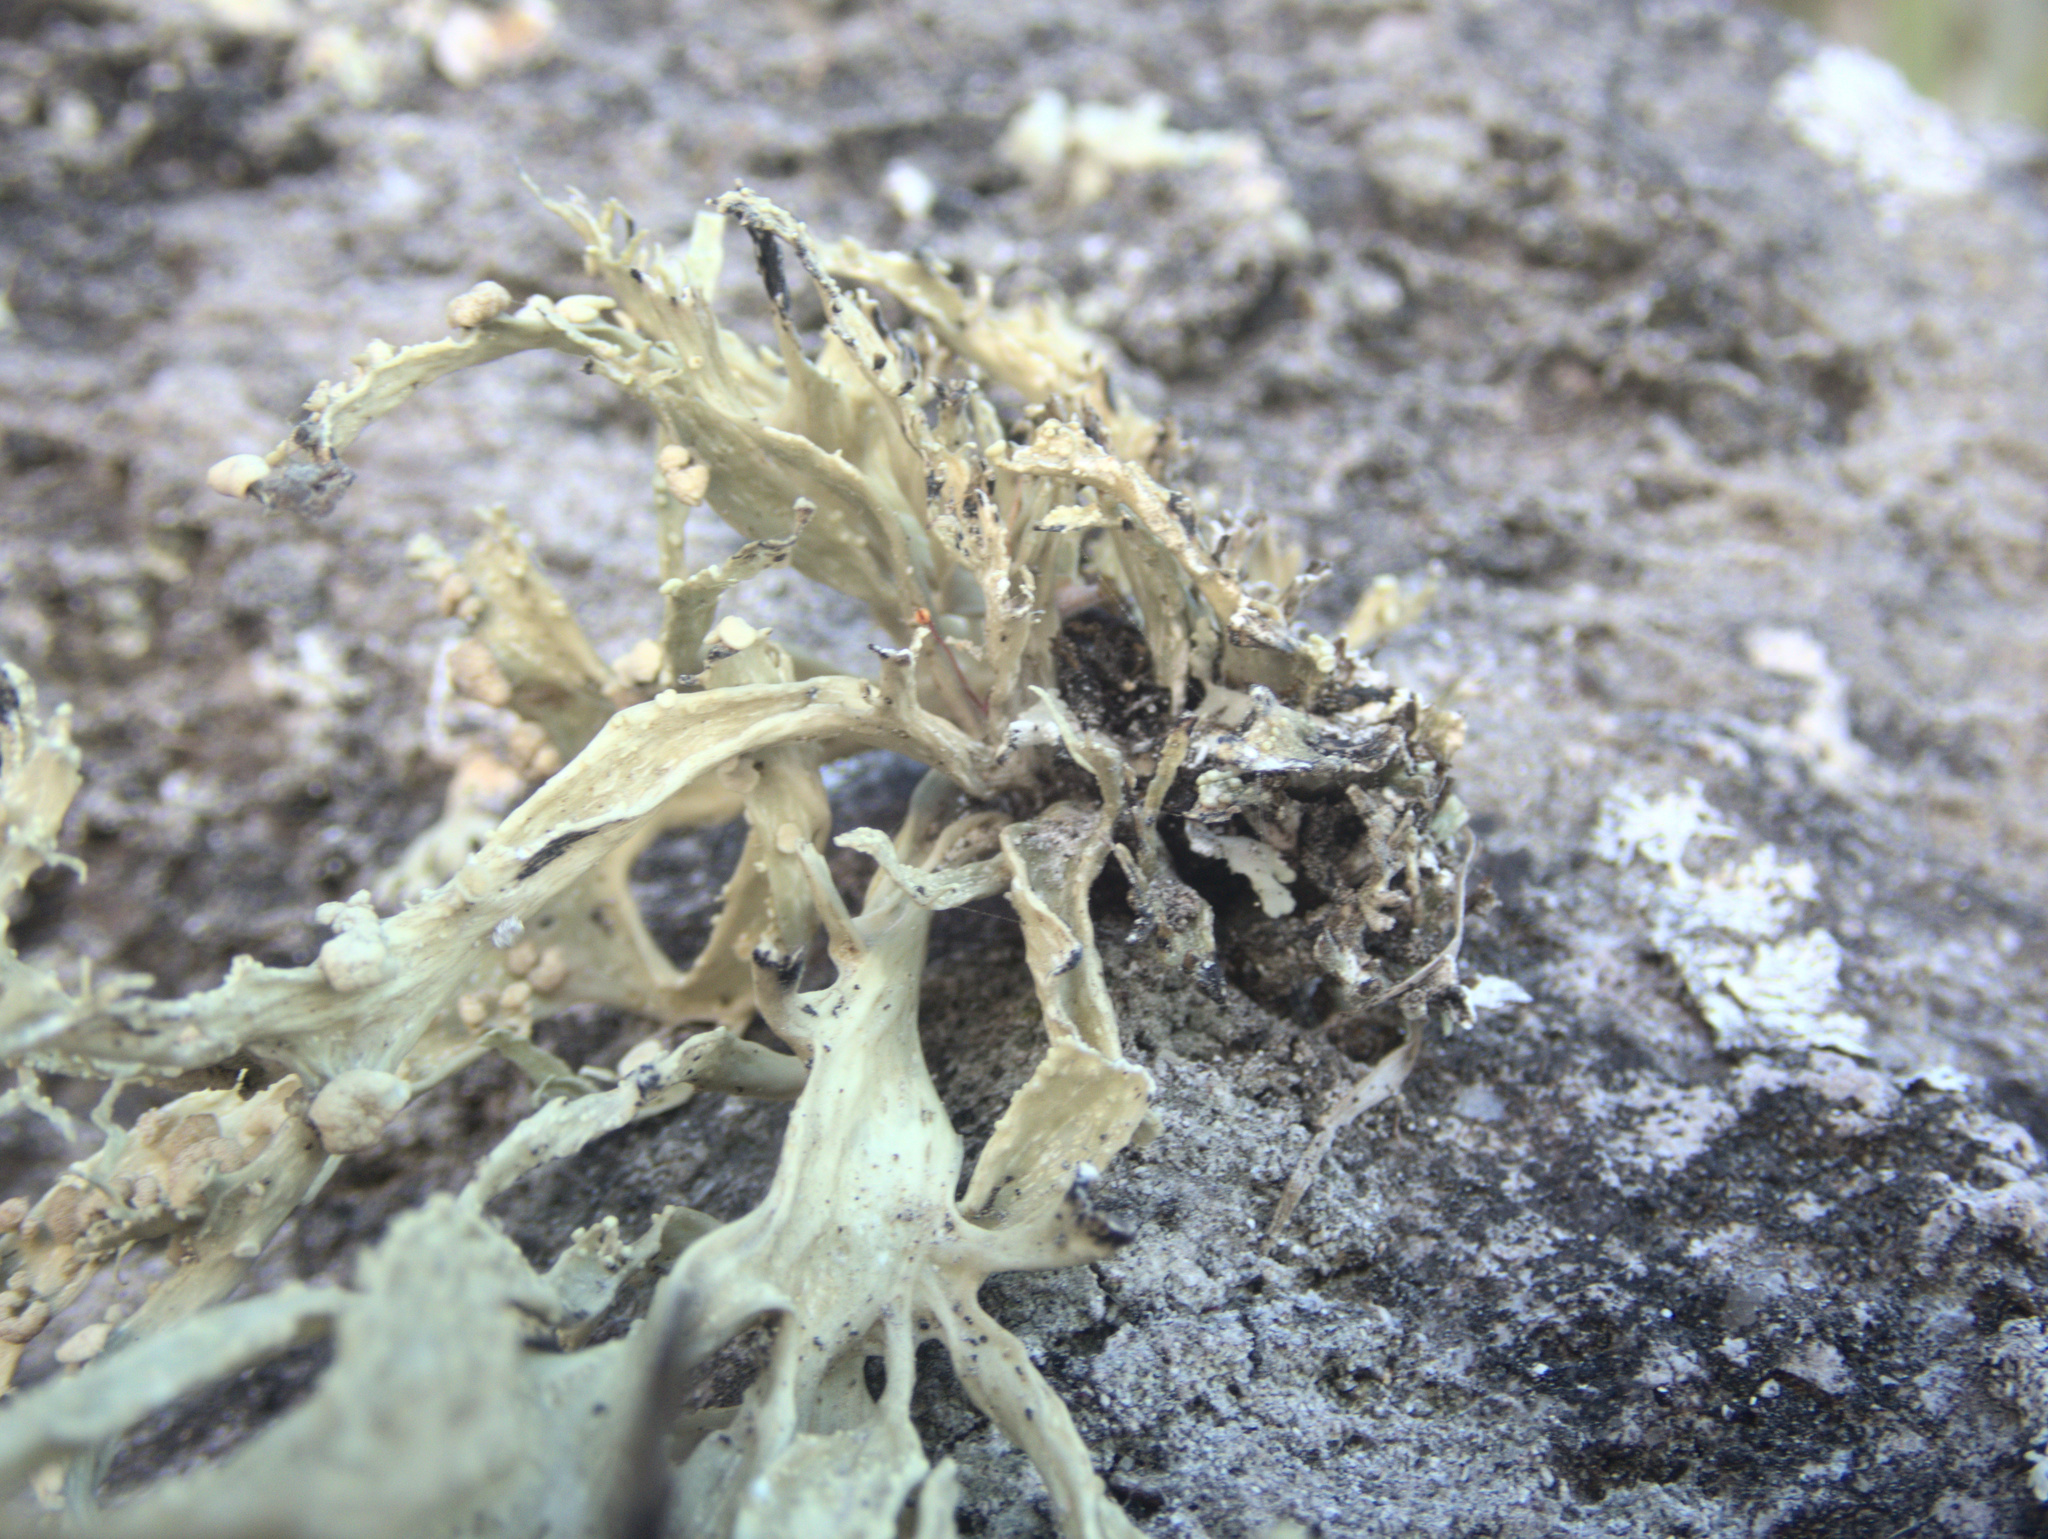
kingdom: Fungi
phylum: Ascomycota
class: Lecanoromycetes
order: Lecanorales
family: Ramalinaceae
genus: Ramalina
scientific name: Ramalina celastri
